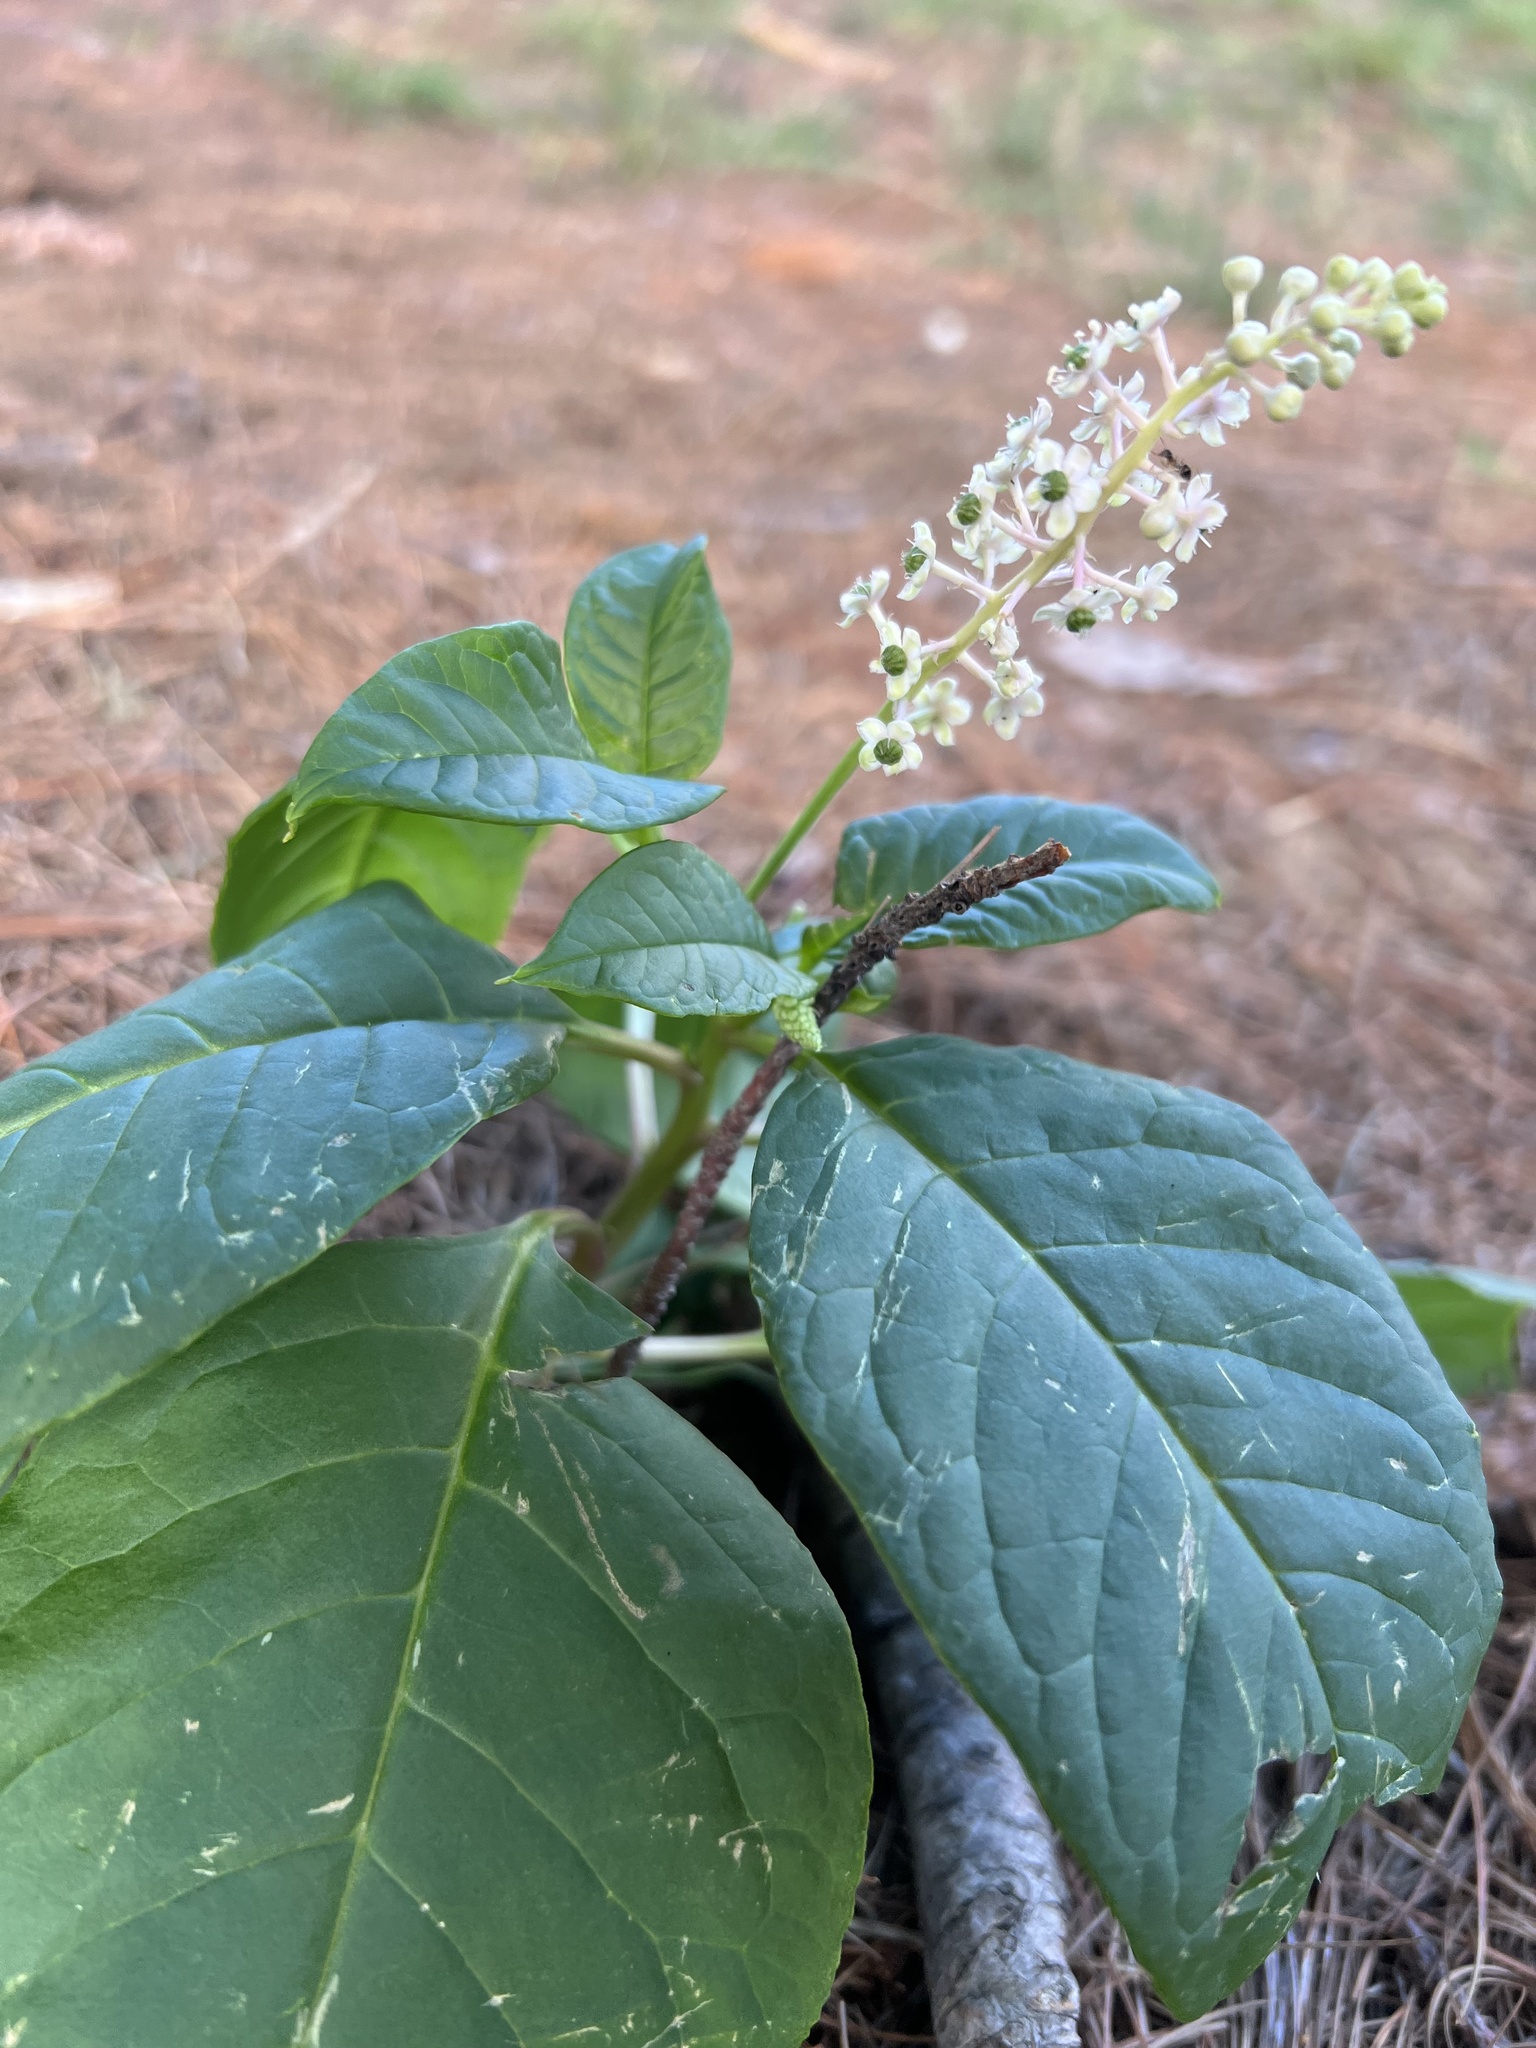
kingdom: Plantae
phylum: Tracheophyta
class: Magnoliopsida
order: Caryophyllales
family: Phytolaccaceae
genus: Phytolacca
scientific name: Phytolacca americana
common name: American pokeweed
